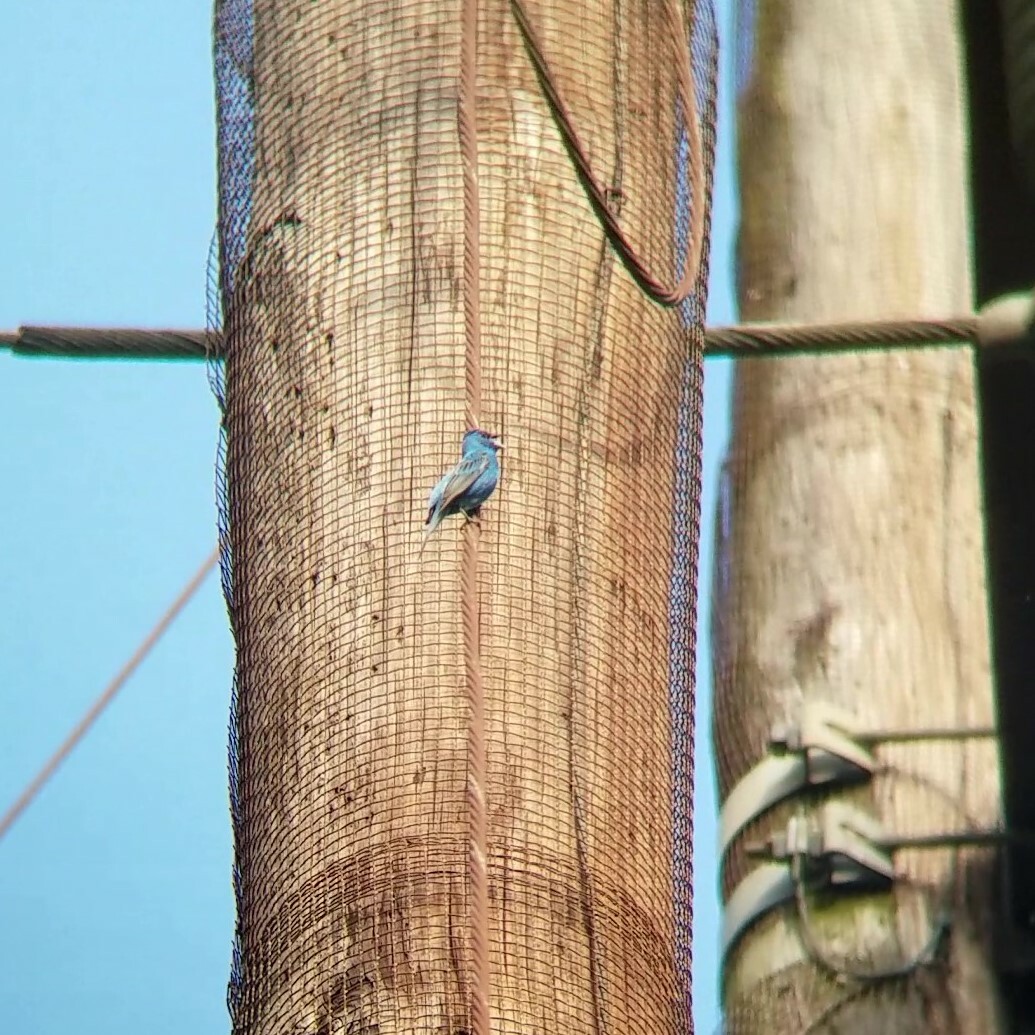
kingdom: Animalia
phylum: Chordata
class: Aves
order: Passeriformes
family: Cardinalidae
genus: Passerina
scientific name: Passerina cyanea
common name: Indigo bunting
